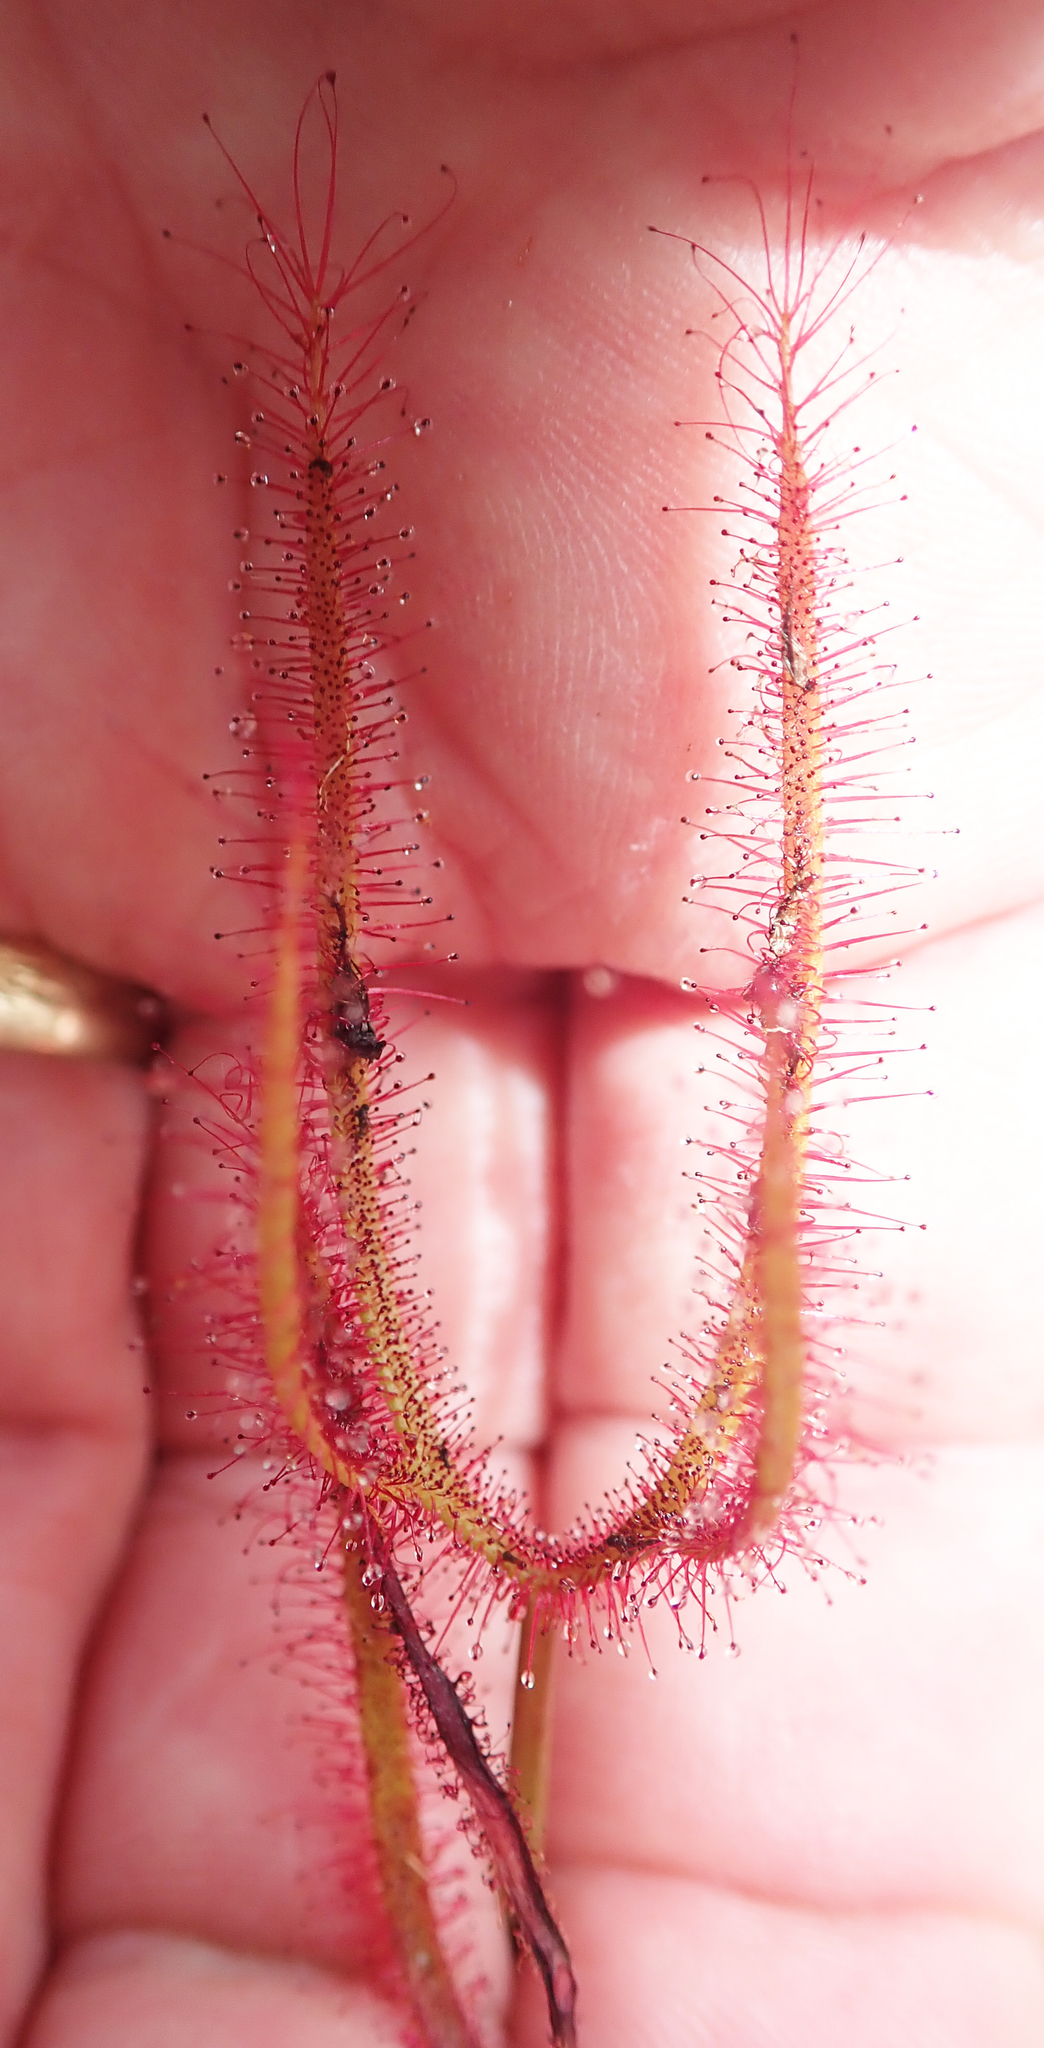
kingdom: Plantae
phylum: Tracheophyta
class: Magnoliopsida
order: Caryophyllales
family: Droseraceae
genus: Drosera
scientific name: Drosera binata
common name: Forked sundew
